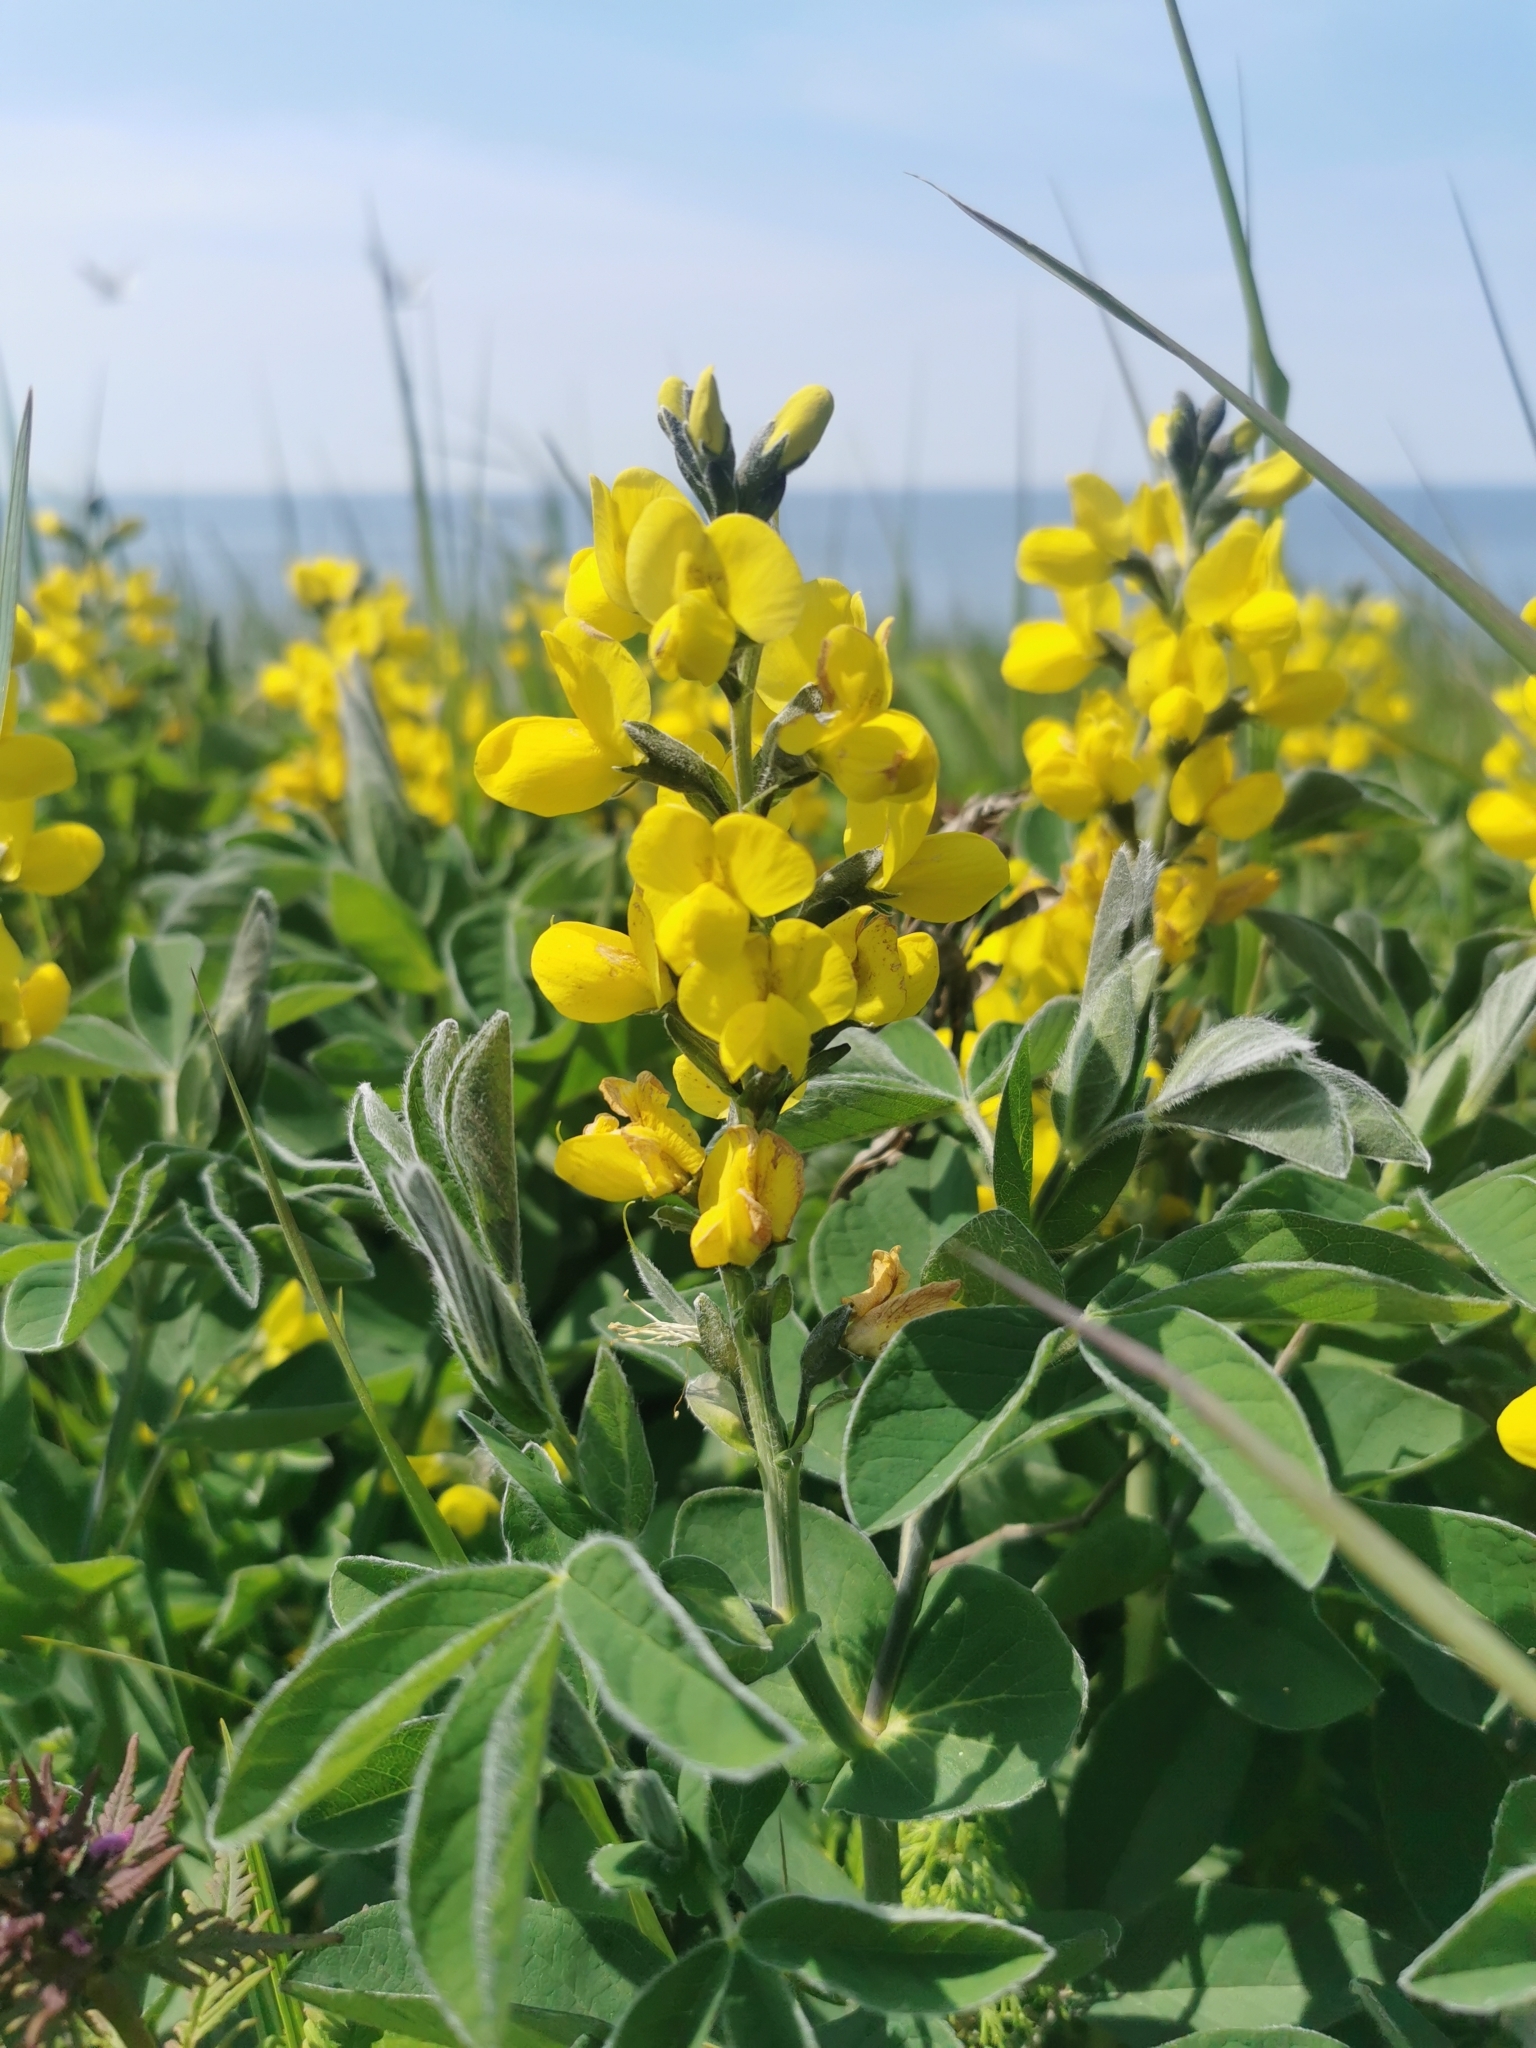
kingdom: Plantae
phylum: Tracheophyta
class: Magnoliopsida
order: Fabales
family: Fabaceae
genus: Thermopsis
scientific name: Thermopsis lanceolata
